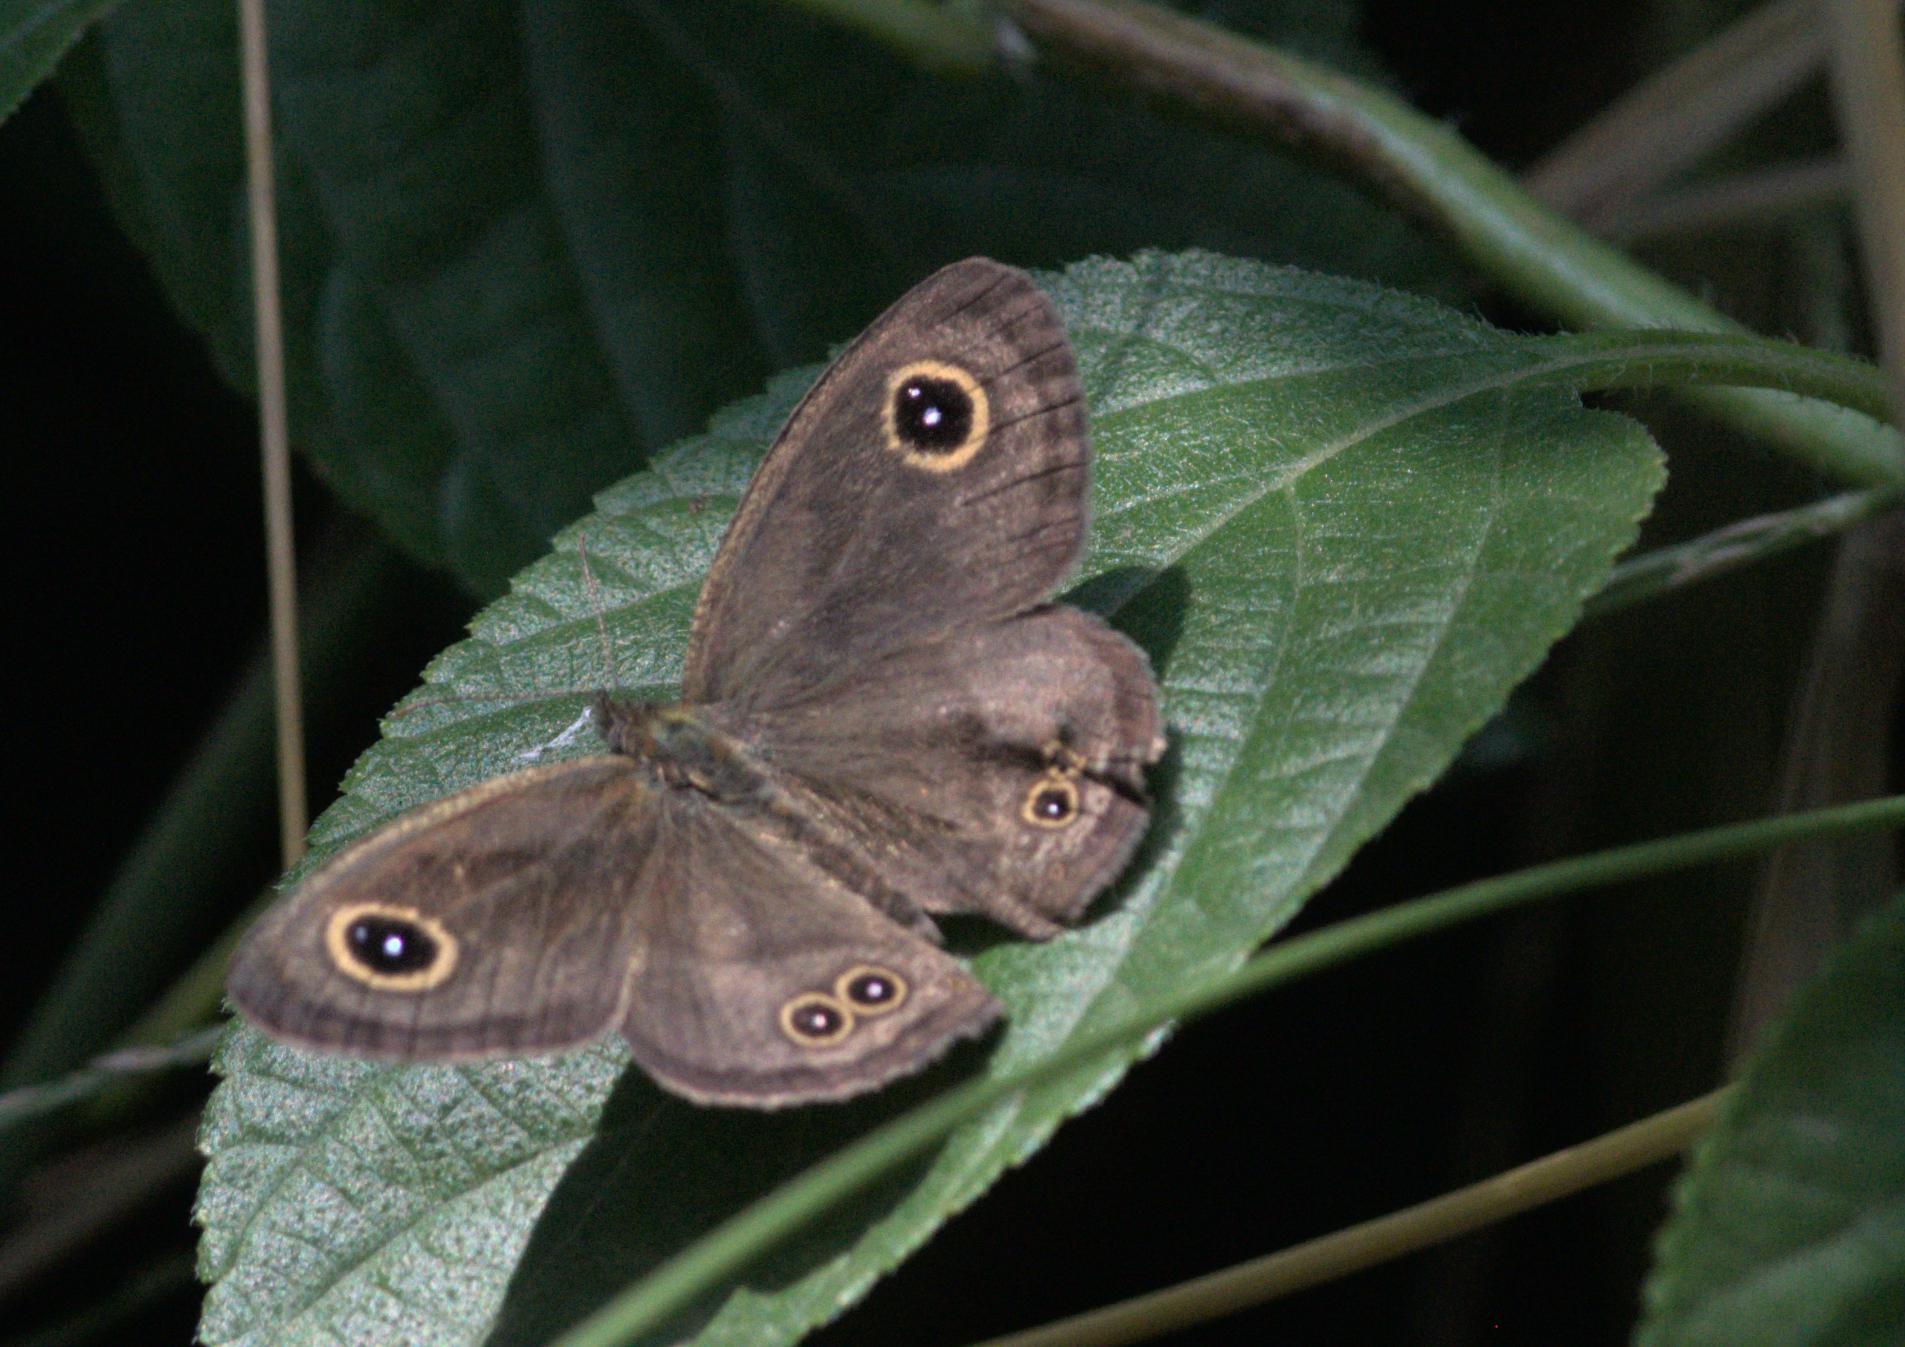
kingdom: Animalia
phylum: Arthropoda
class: Insecta
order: Lepidoptera
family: Nymphalidae
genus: Ypthima
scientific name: Ypthima baldus
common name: Common five-ring
